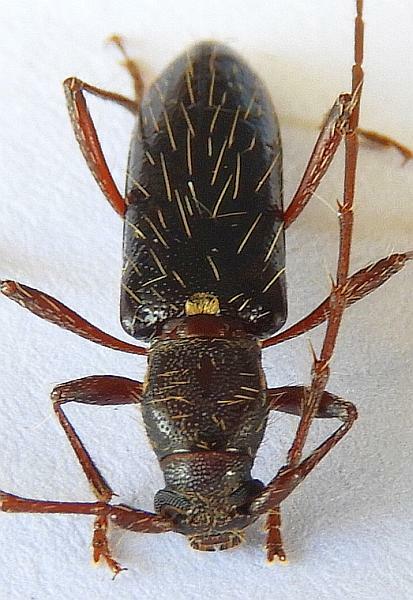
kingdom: Animalia
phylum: Arthropoda
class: Insecta
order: Coleoptera
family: Cerambycidae
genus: Stenelaphus
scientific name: Stenelaphus alienus
